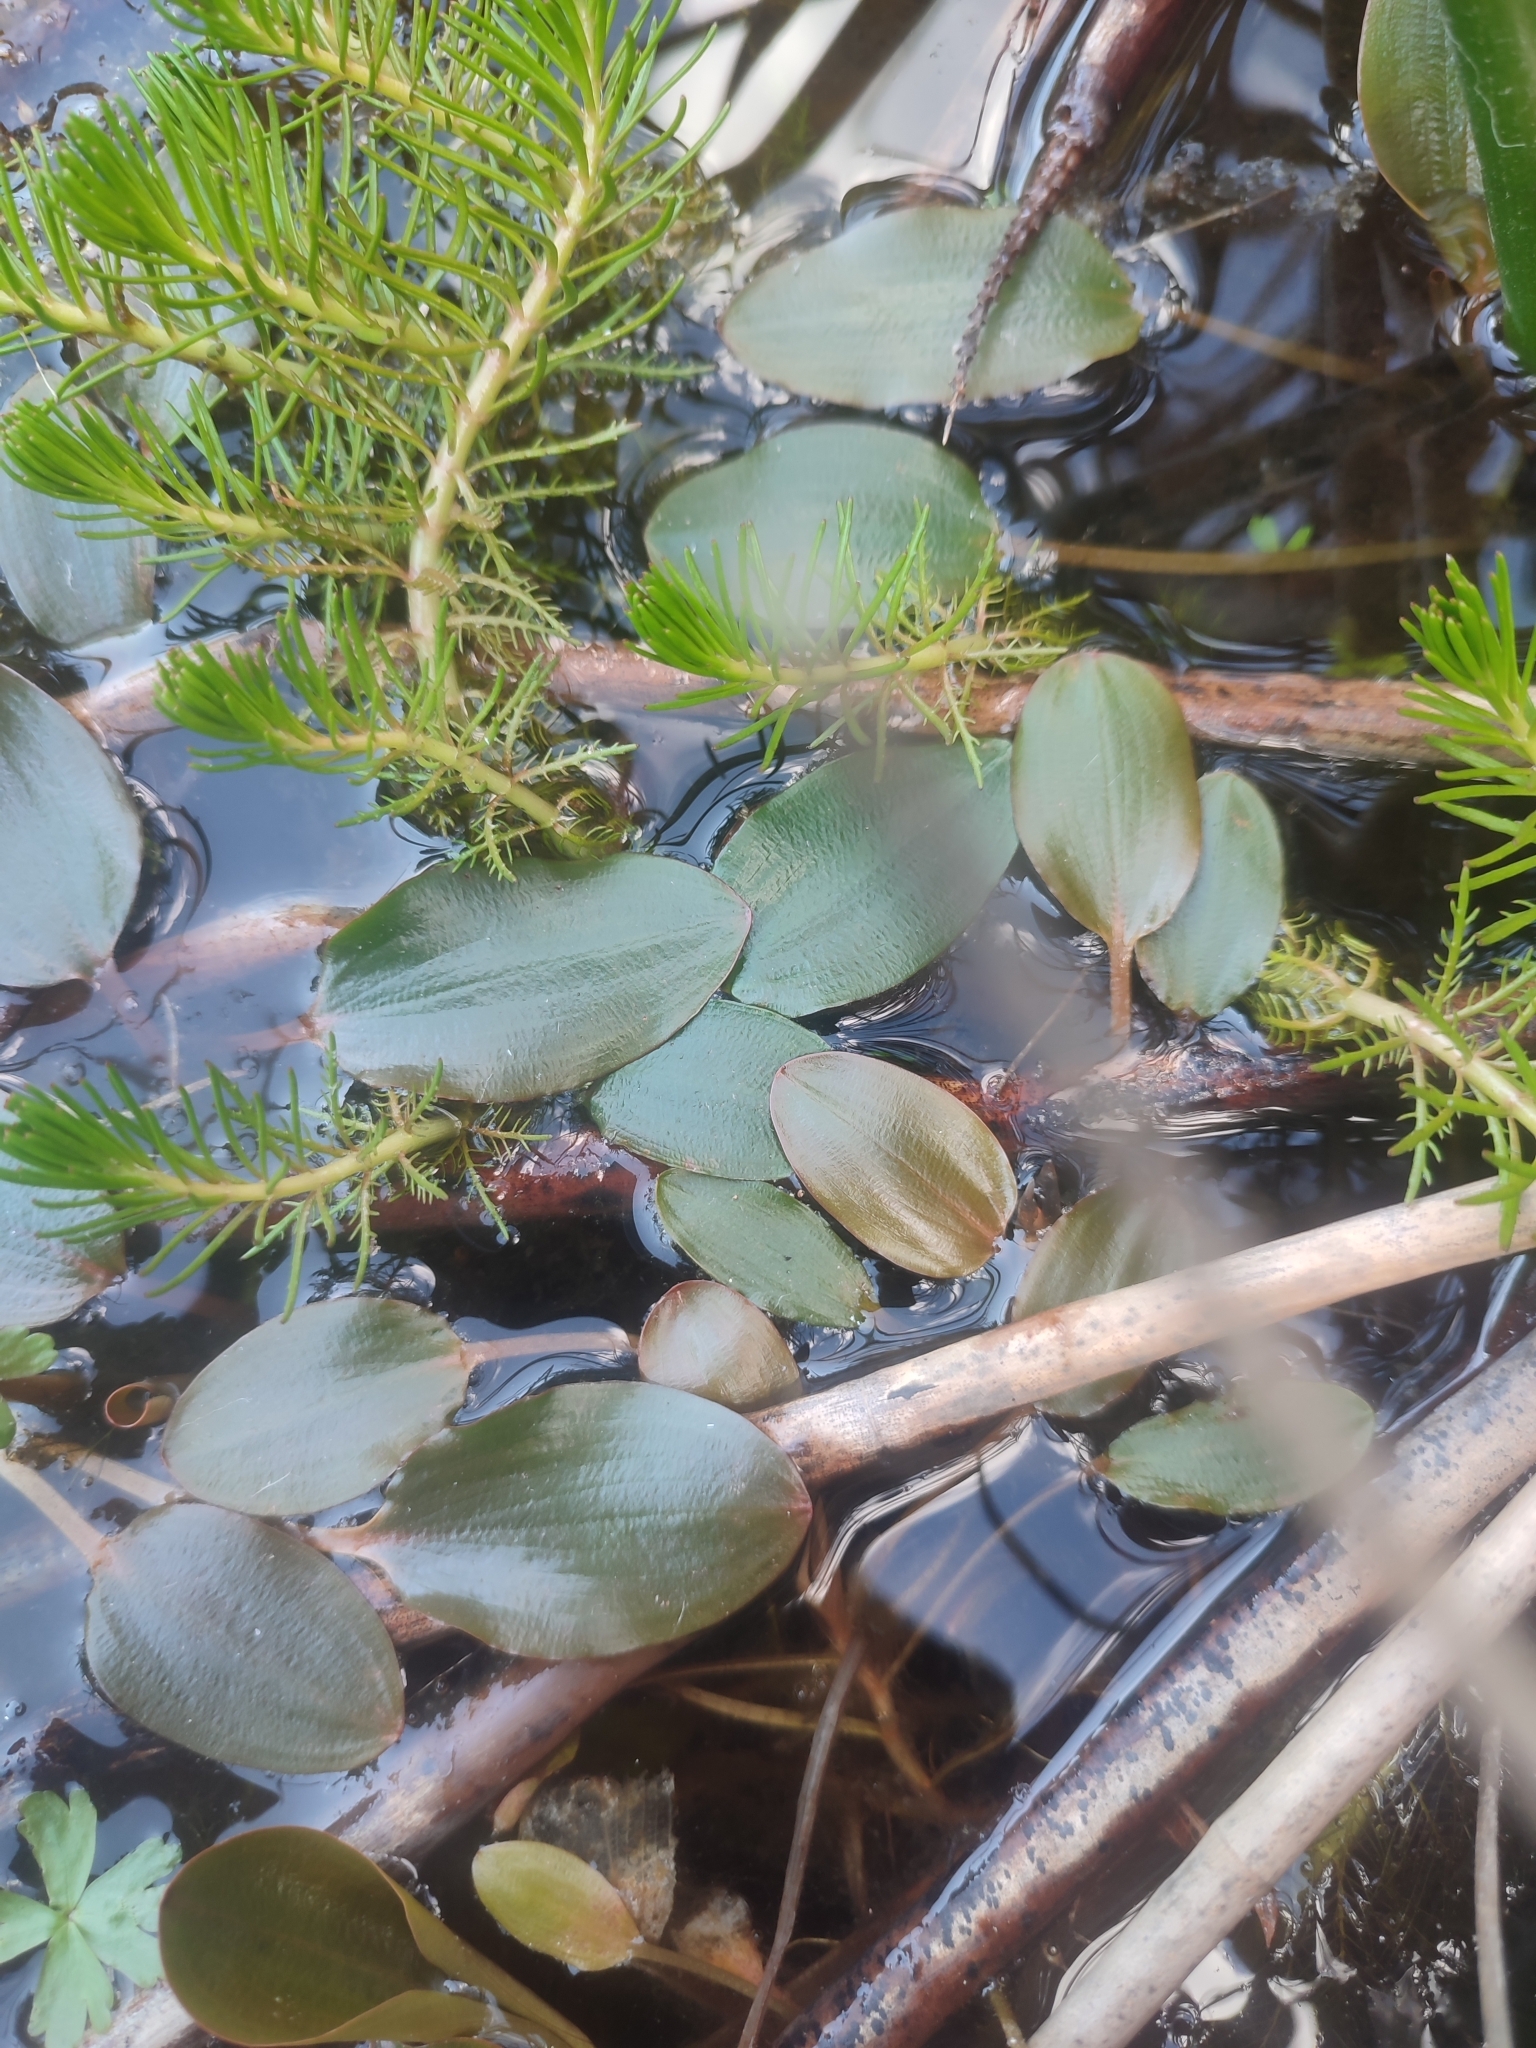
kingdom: Plantae
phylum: Tracheophyta
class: Liliopsida
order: Alismatales
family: Potamogetonaceae
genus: Potamogeton
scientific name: Potamogeton
